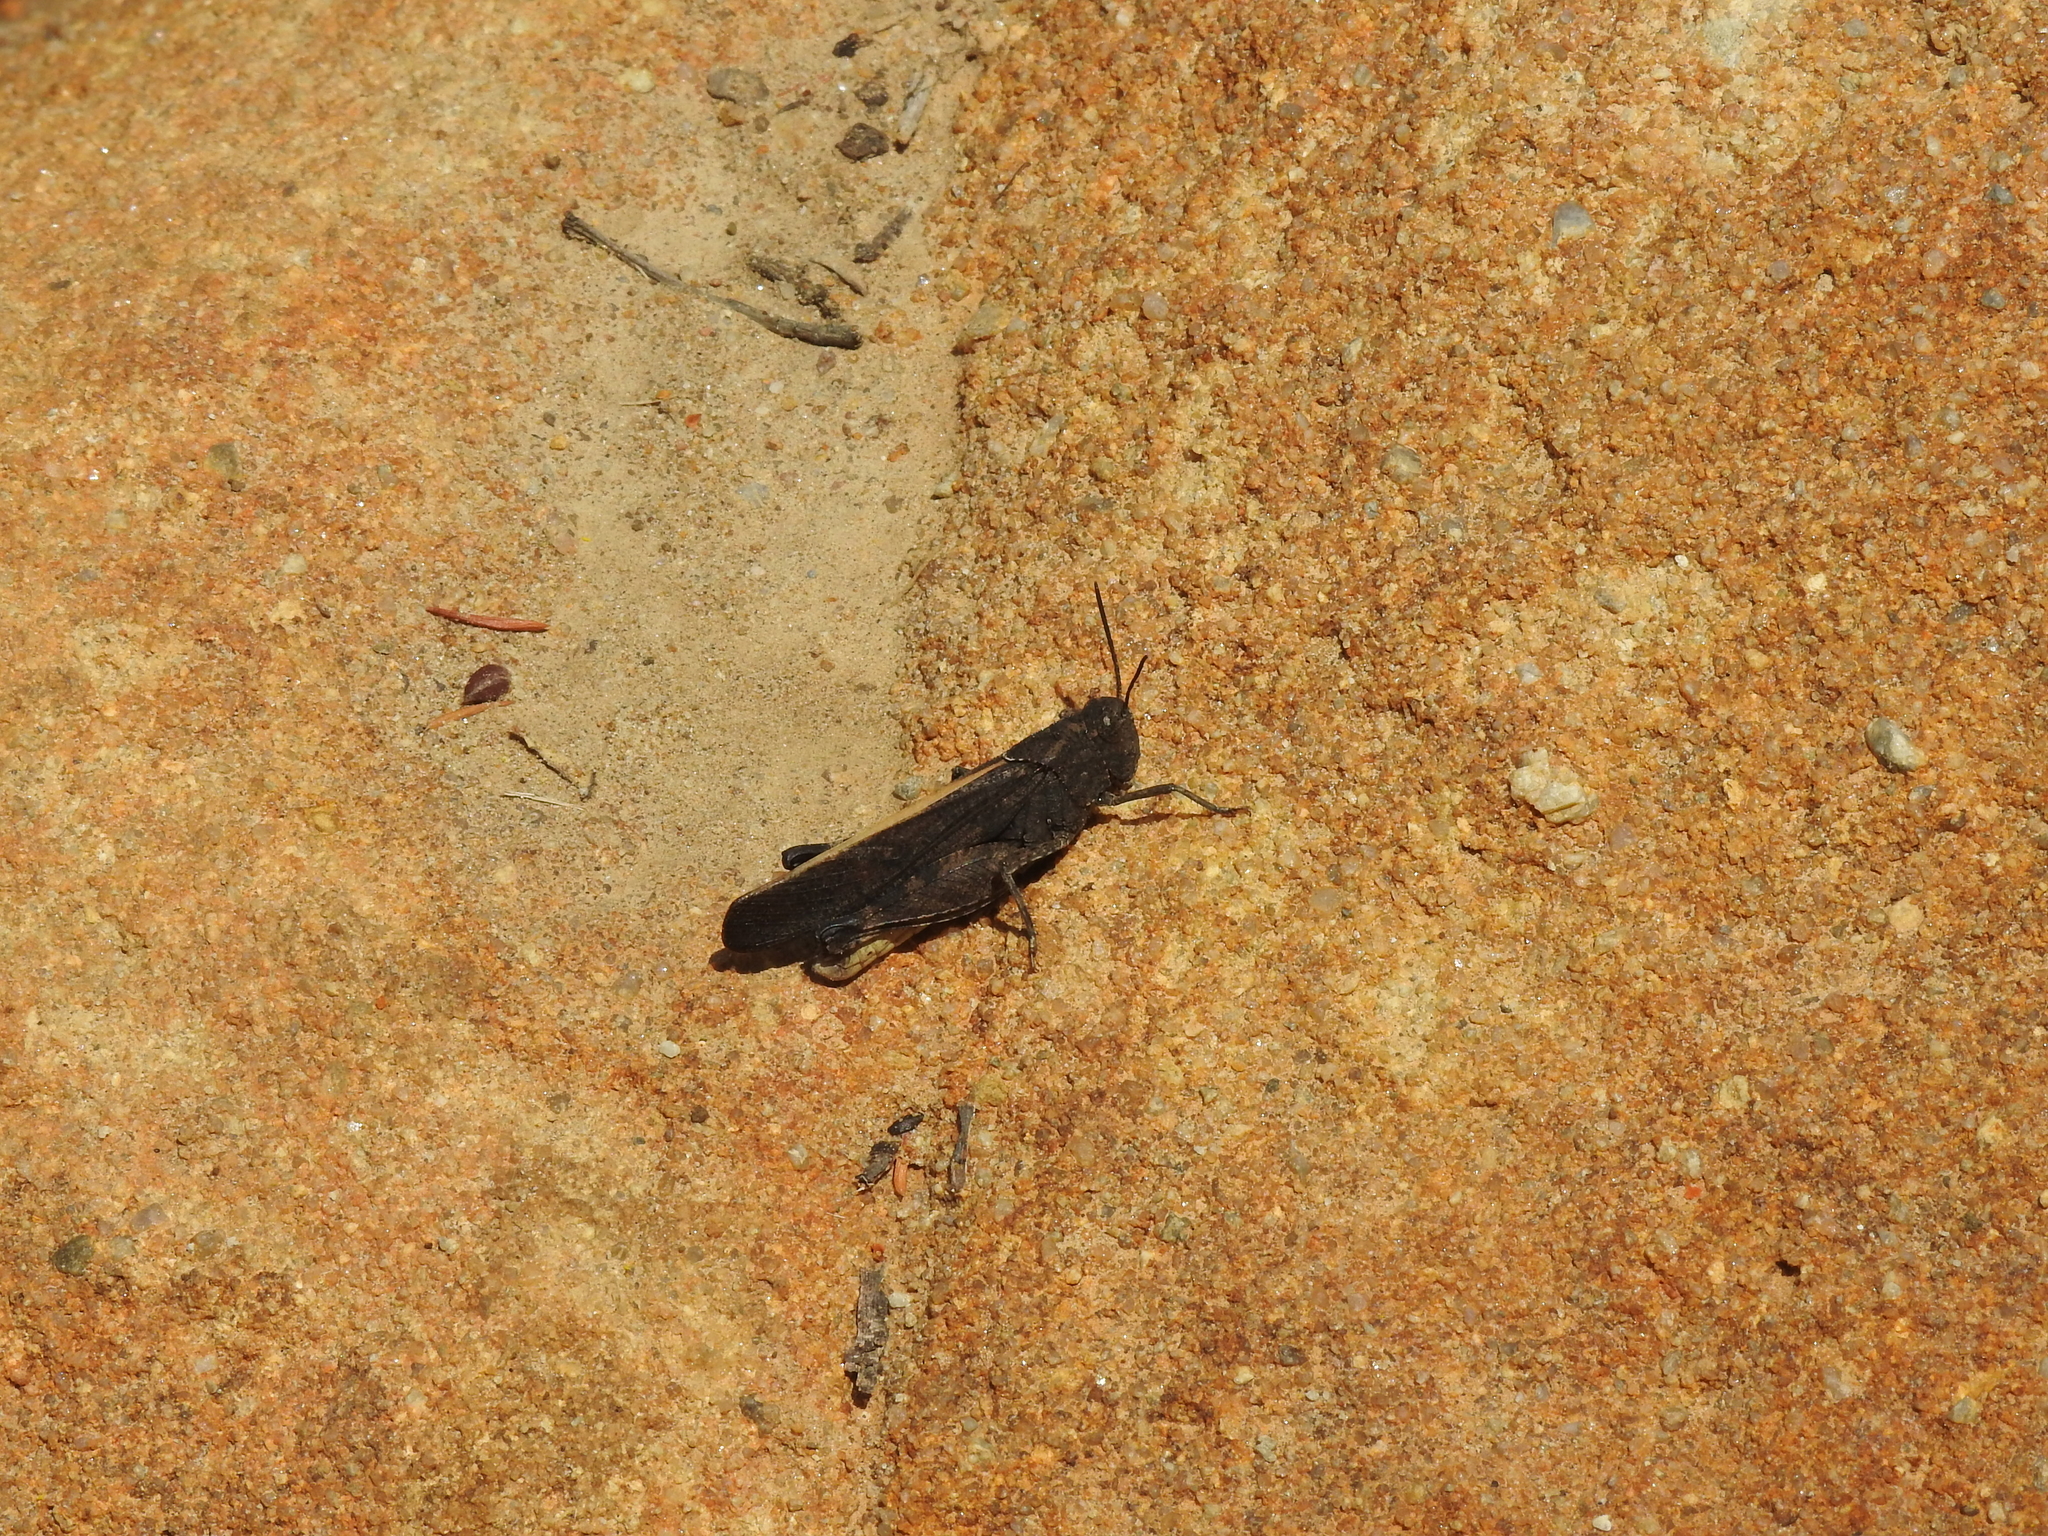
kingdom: Animalia
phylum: Arthropoda
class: Insecta
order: Orthoptera
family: Acrididae
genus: Arphia
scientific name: Arphia ramona
